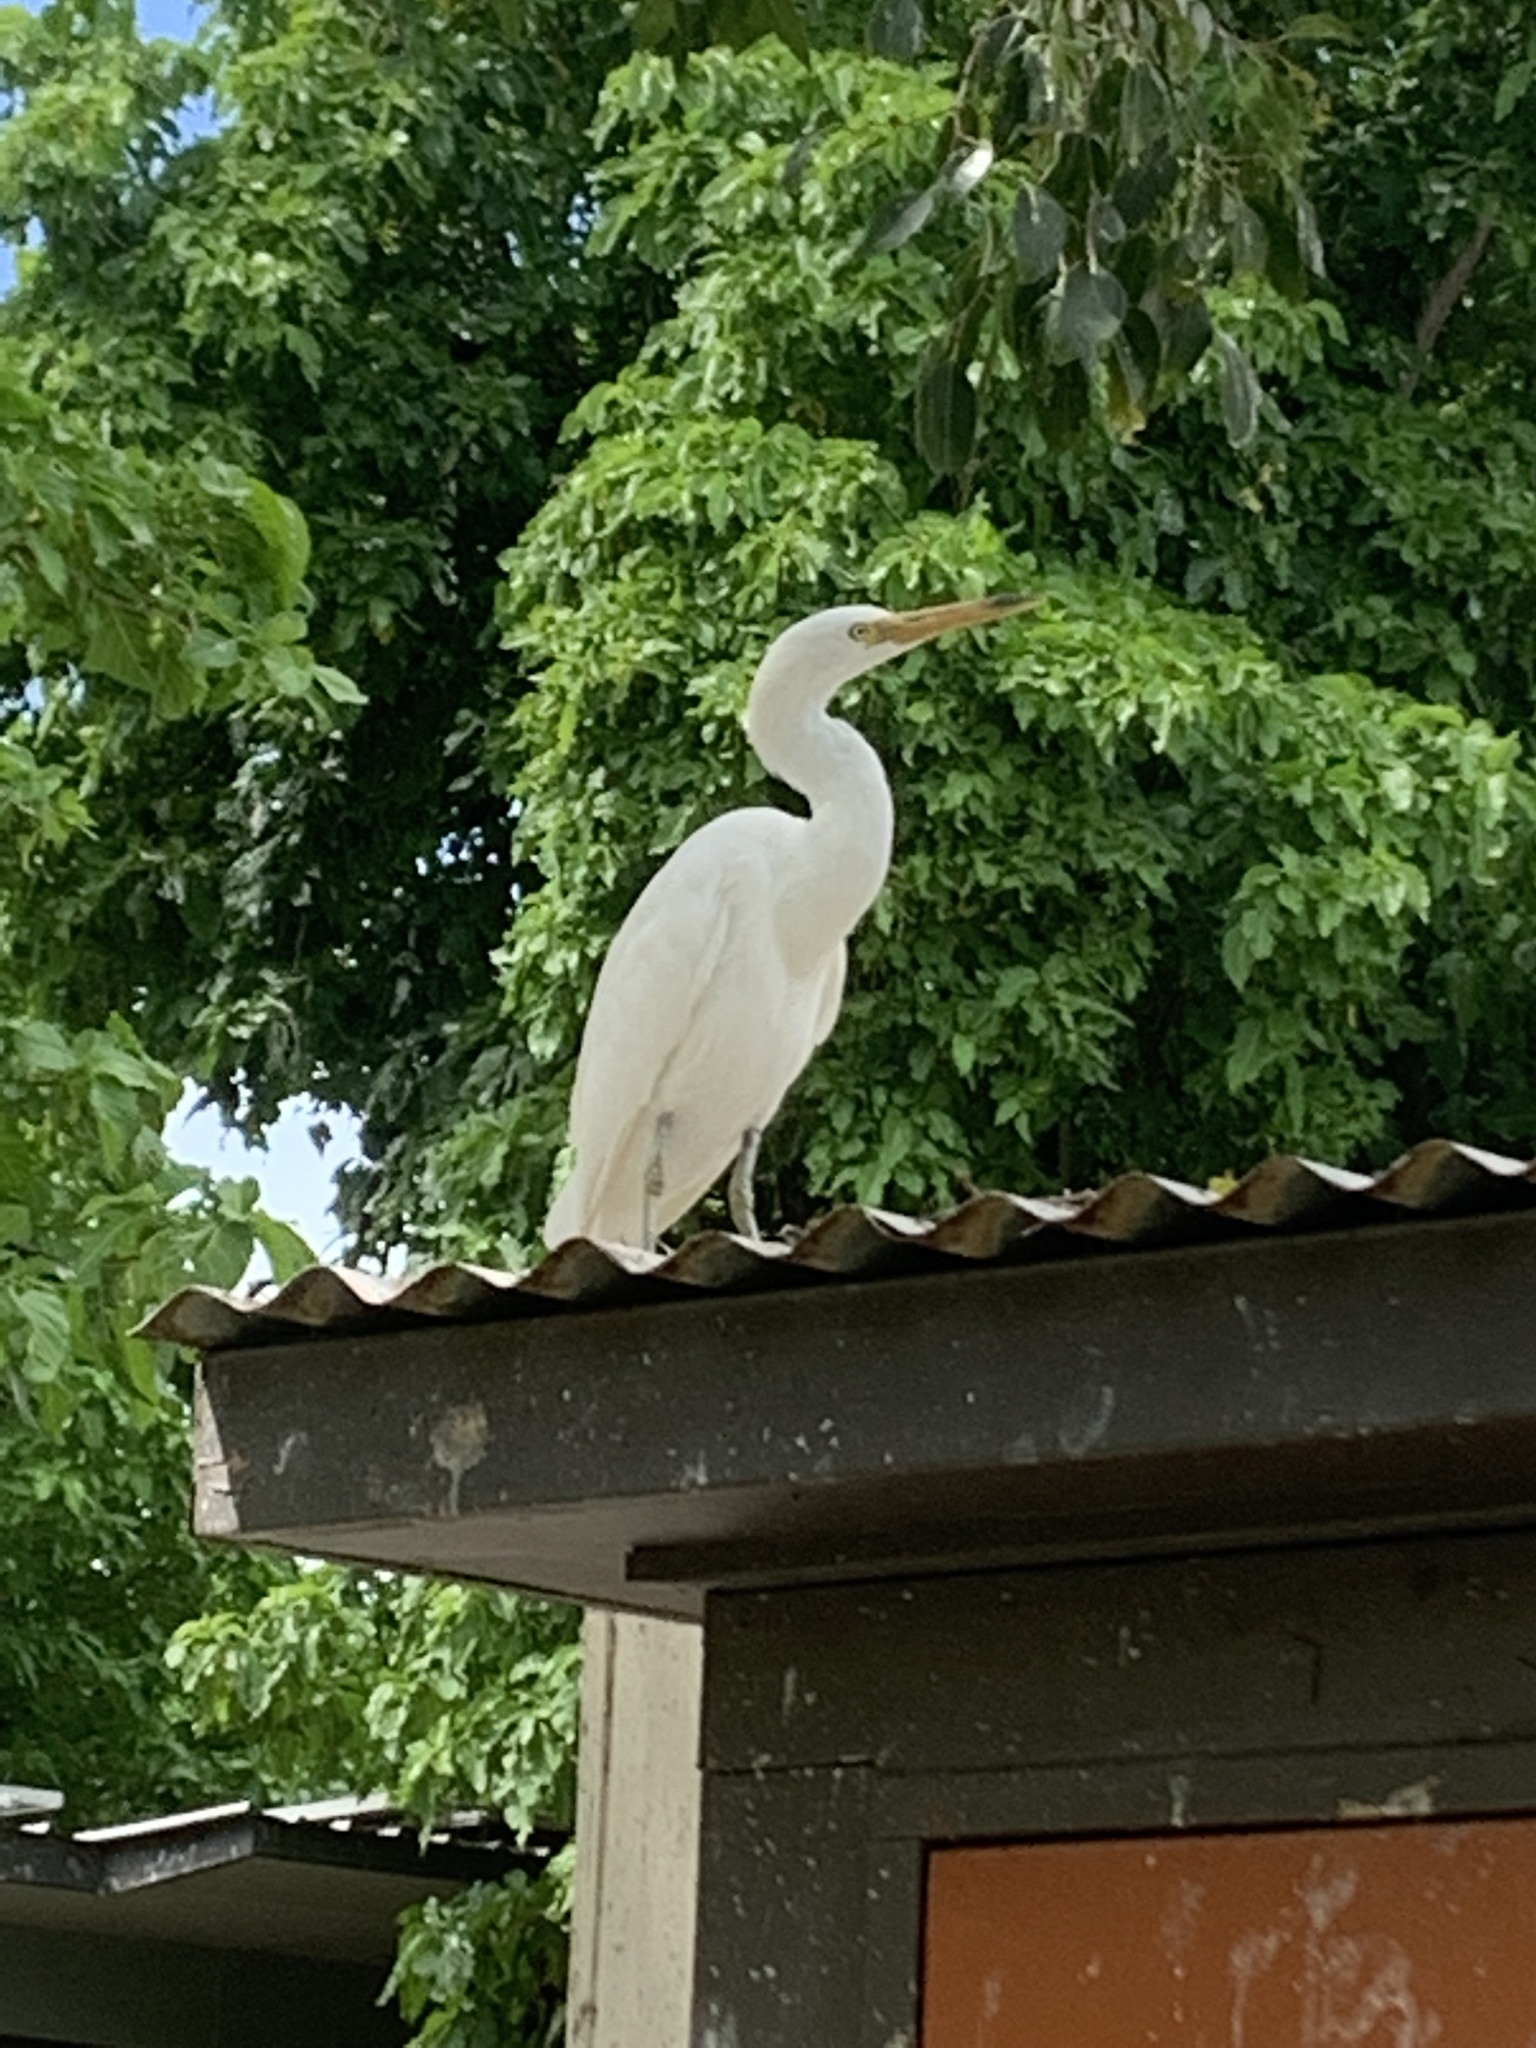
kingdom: Animalia
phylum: Chordata
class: Aves
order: Pelecaniformes
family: Ardeidae
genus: Egretta
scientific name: Egretta sacra
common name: Pacific reef heron
